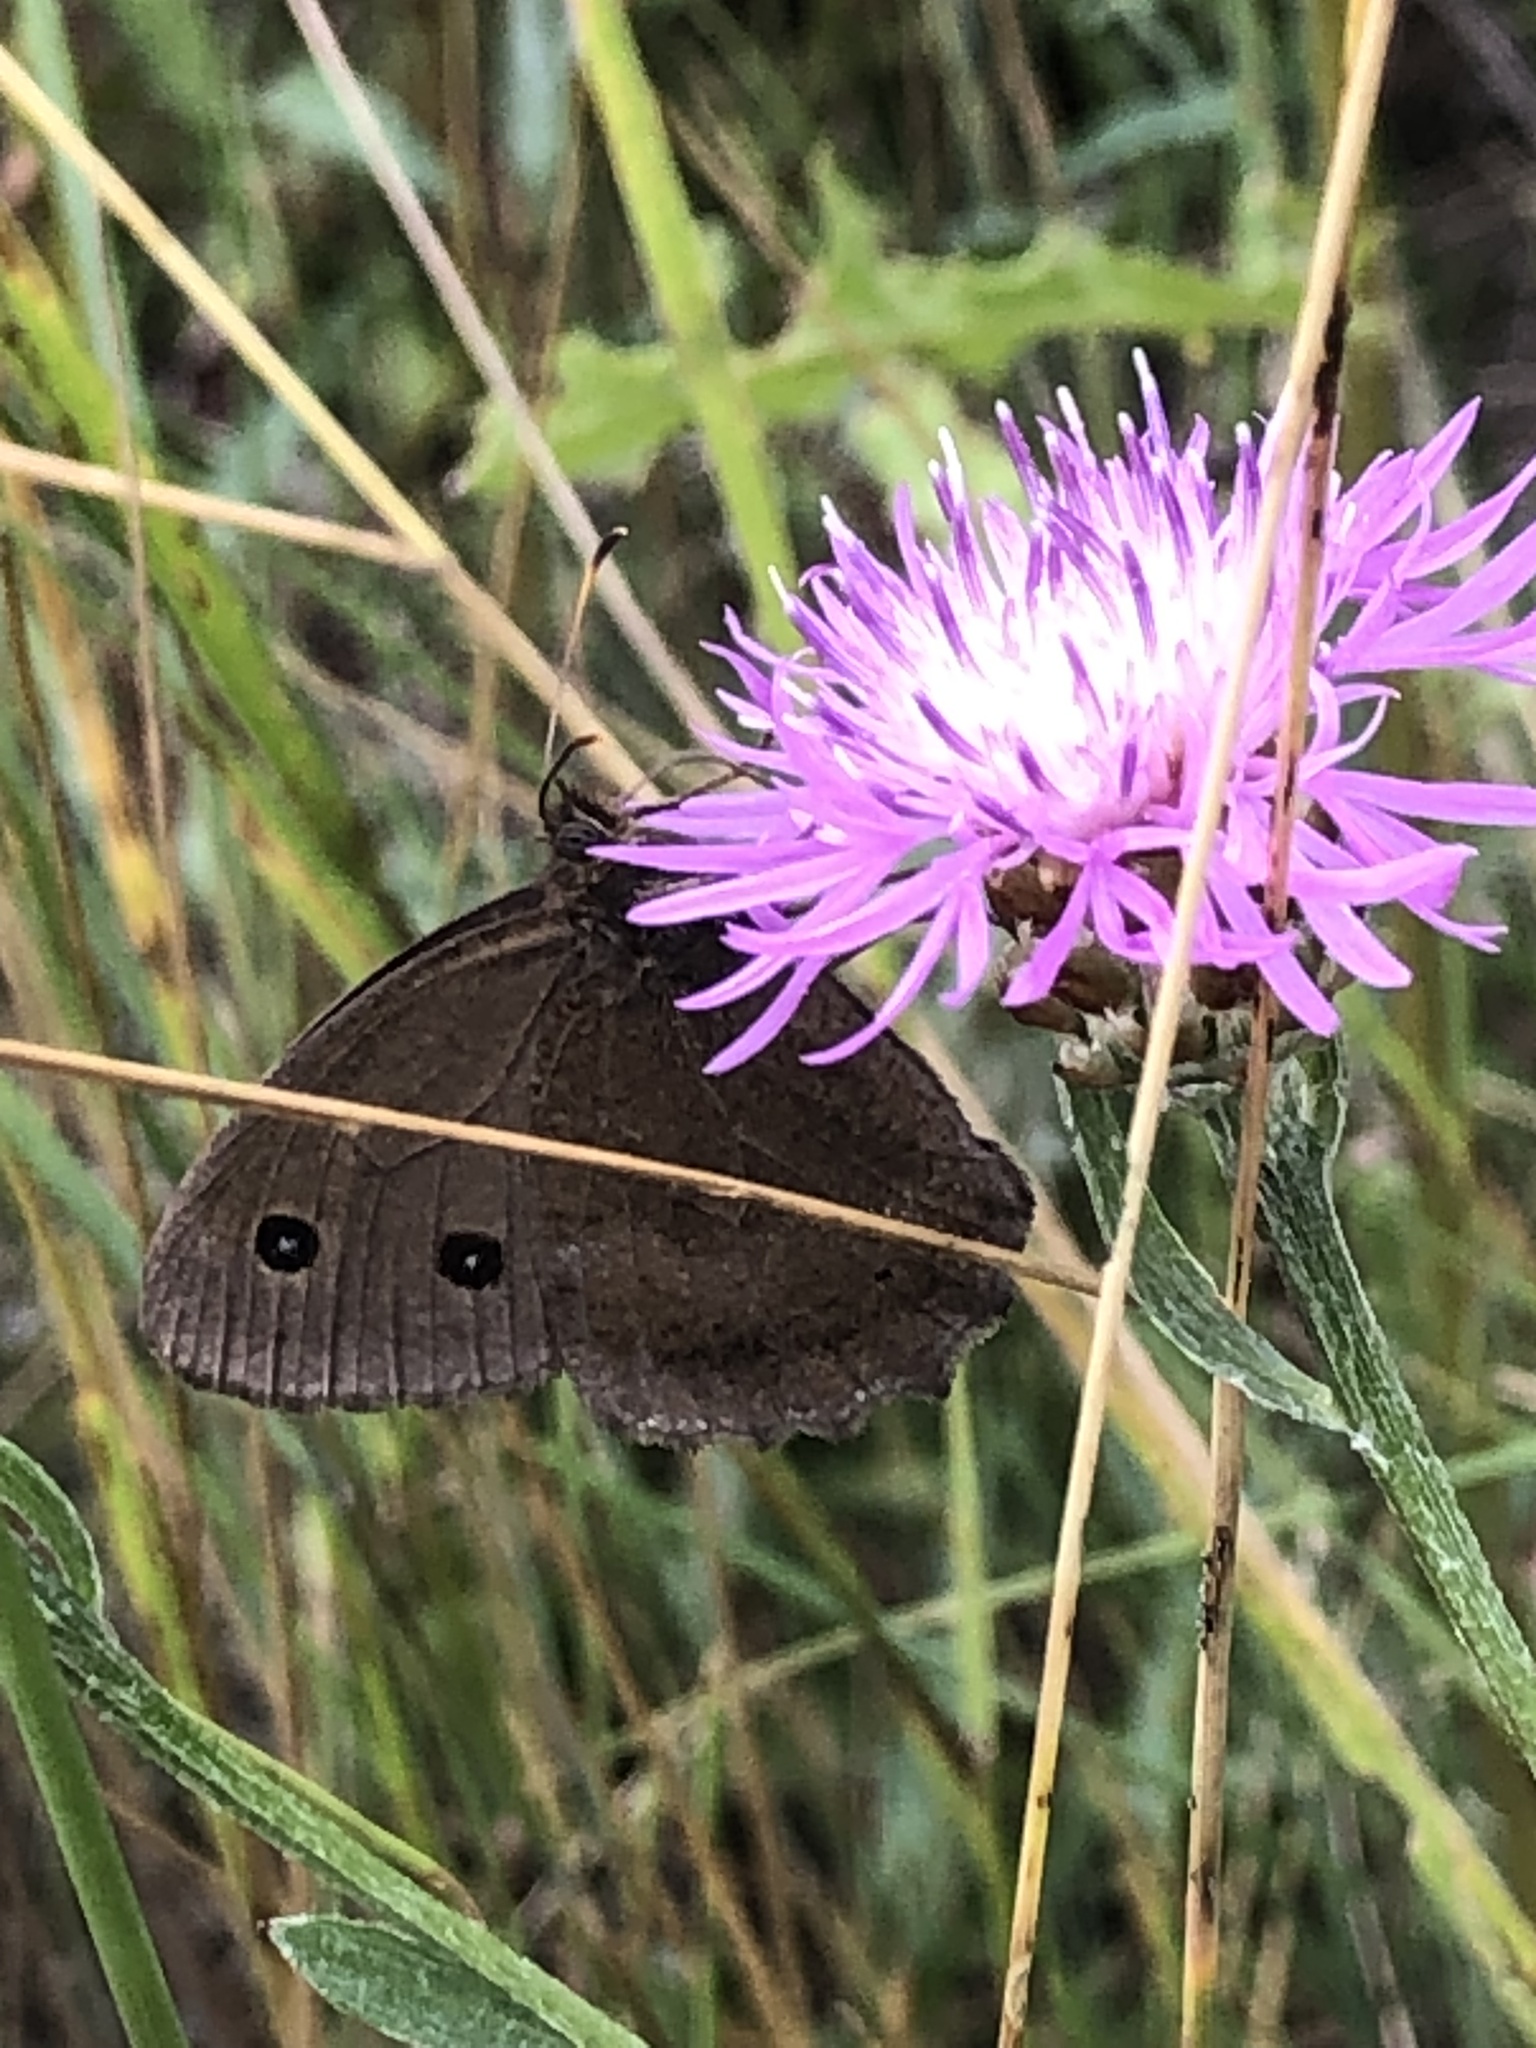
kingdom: Animalia
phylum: Arthropoda
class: Insecta
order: Lepidoptera
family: Nymphalidae
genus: Minois
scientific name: Minois dryas
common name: Dryad
